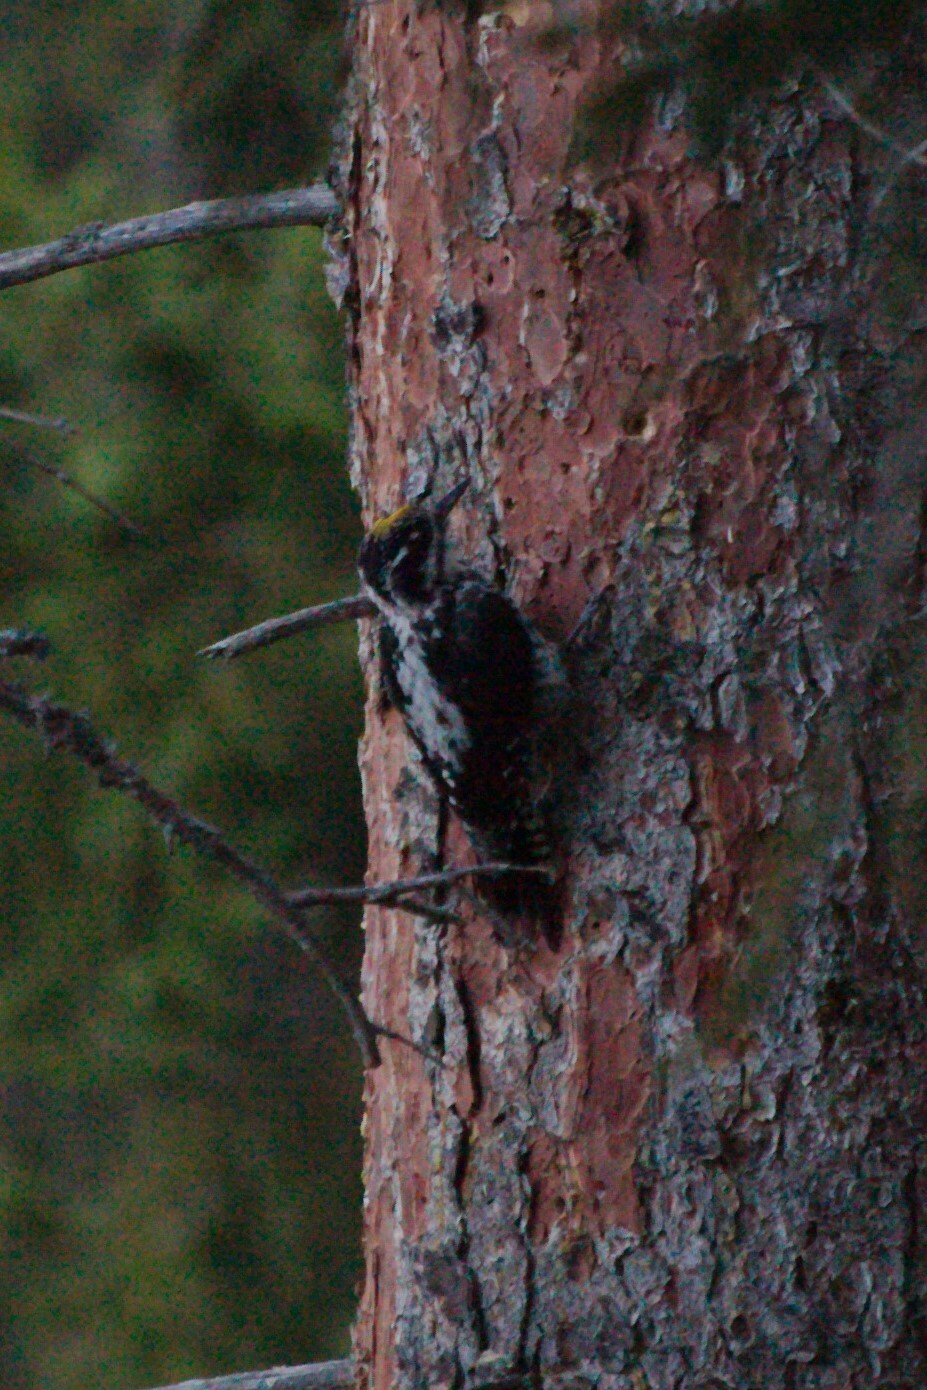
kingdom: Animalia
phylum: Chordata
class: Aves
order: Piciformes
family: Picidae
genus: Picoides
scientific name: Picoides tridactylus
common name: Eurasian three-toed woodpecker
